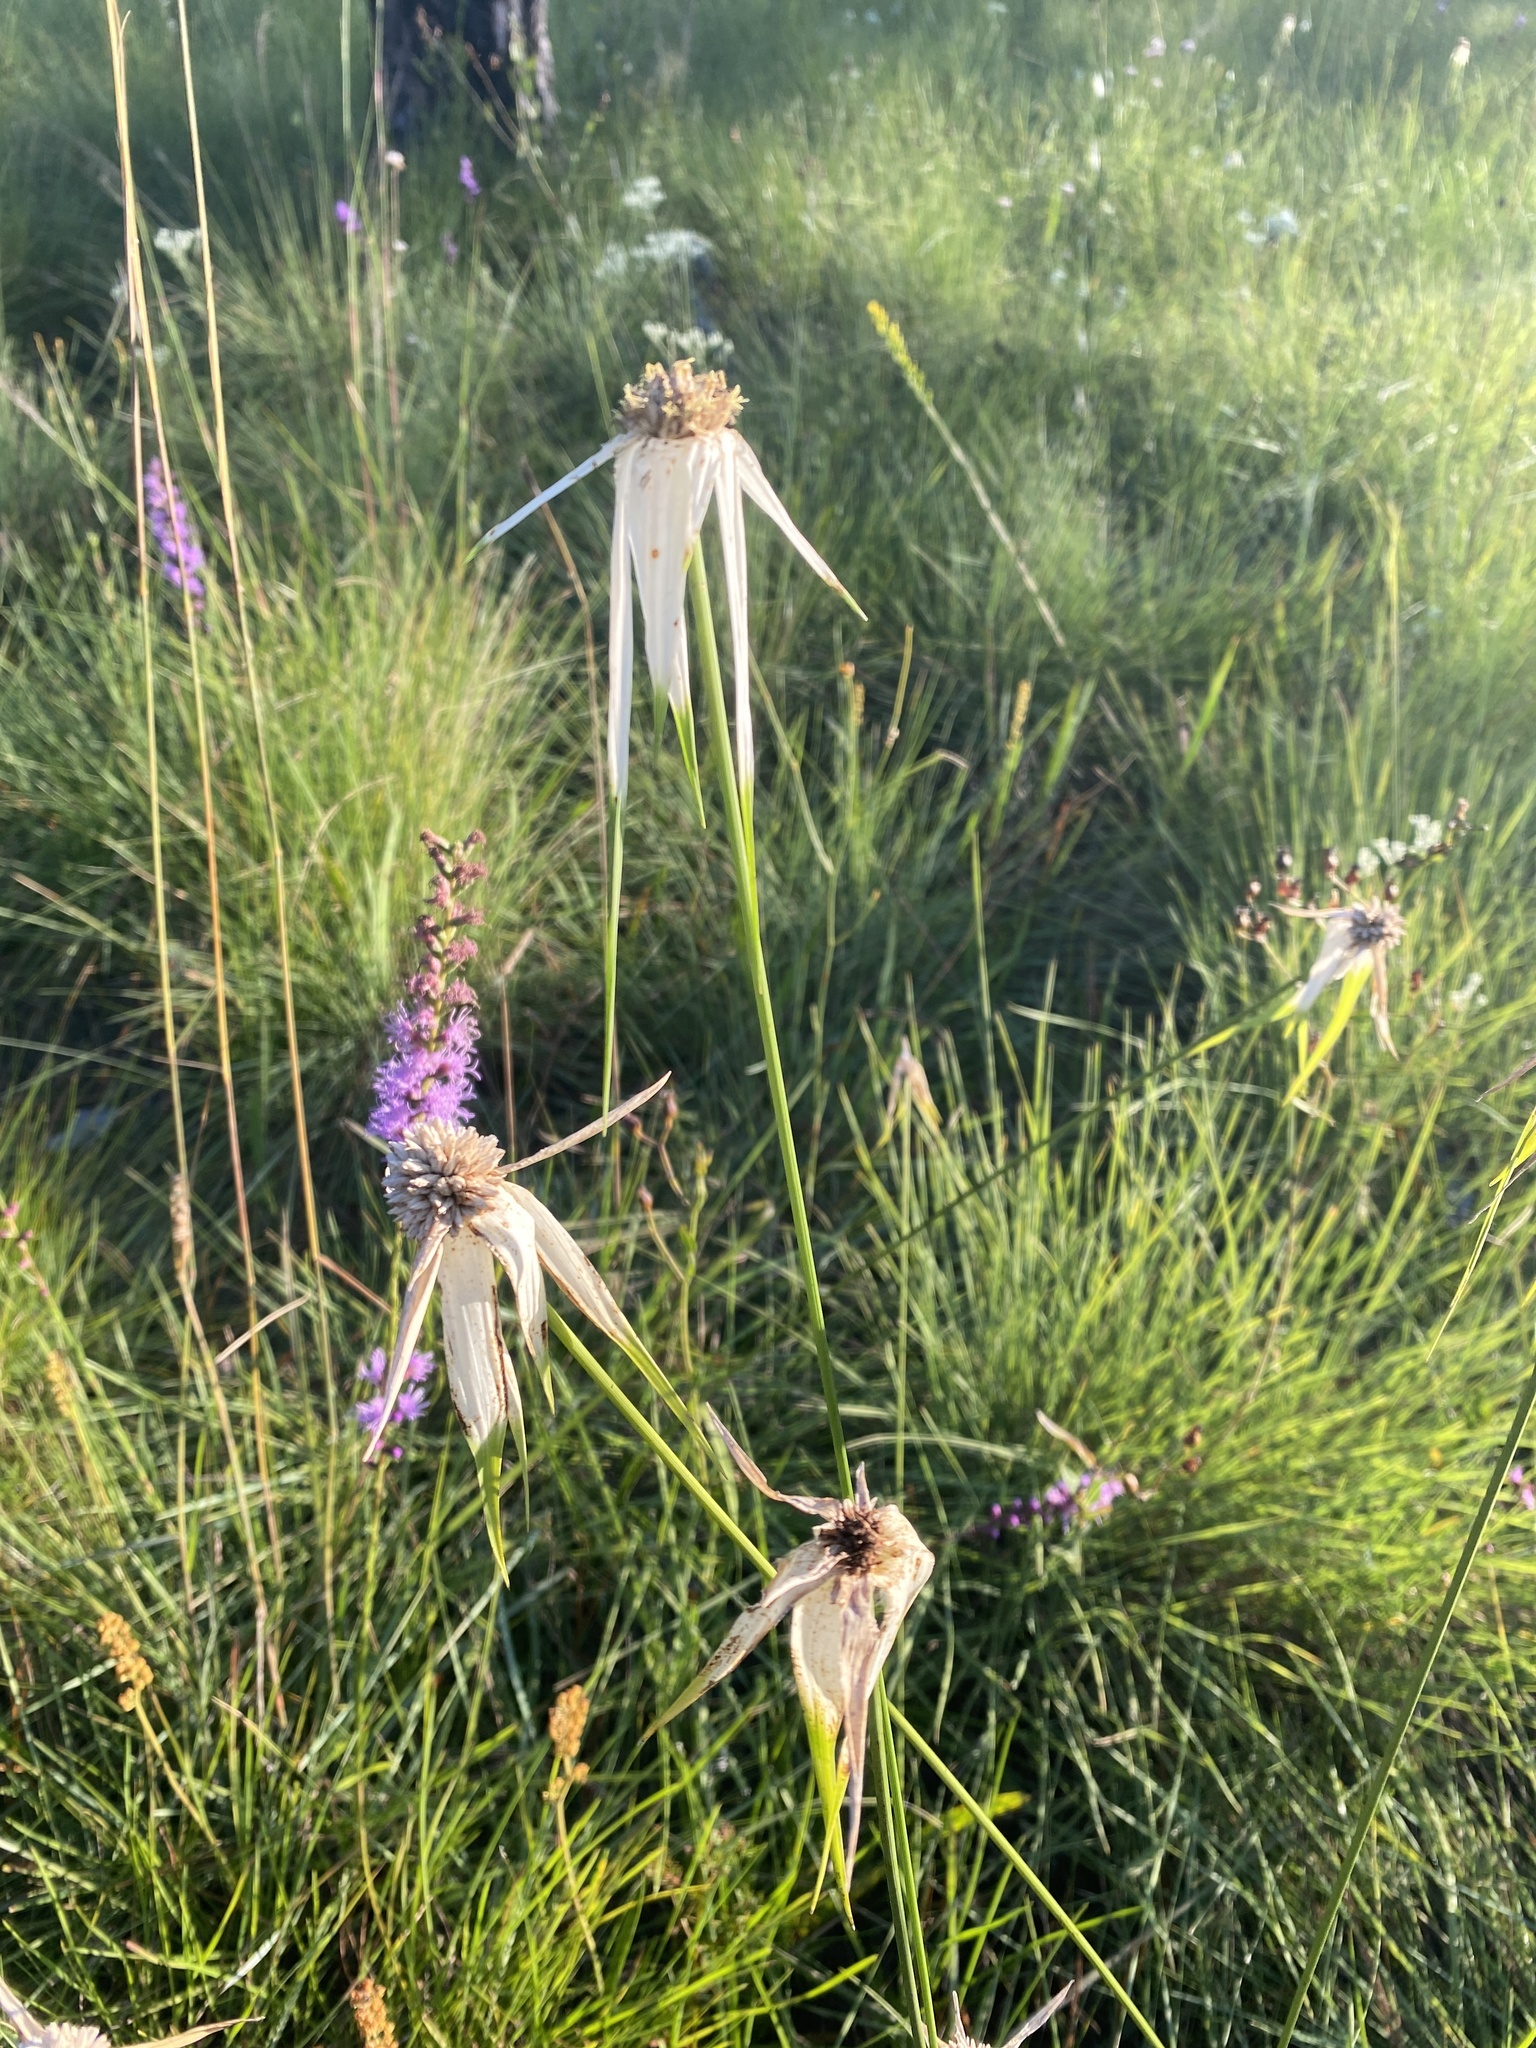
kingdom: Plantae
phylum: Tracheophyta
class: Liliopsida
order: Poales
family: Cyperaceae
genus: Rhynchospora
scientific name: Rhynchospora latifolia
